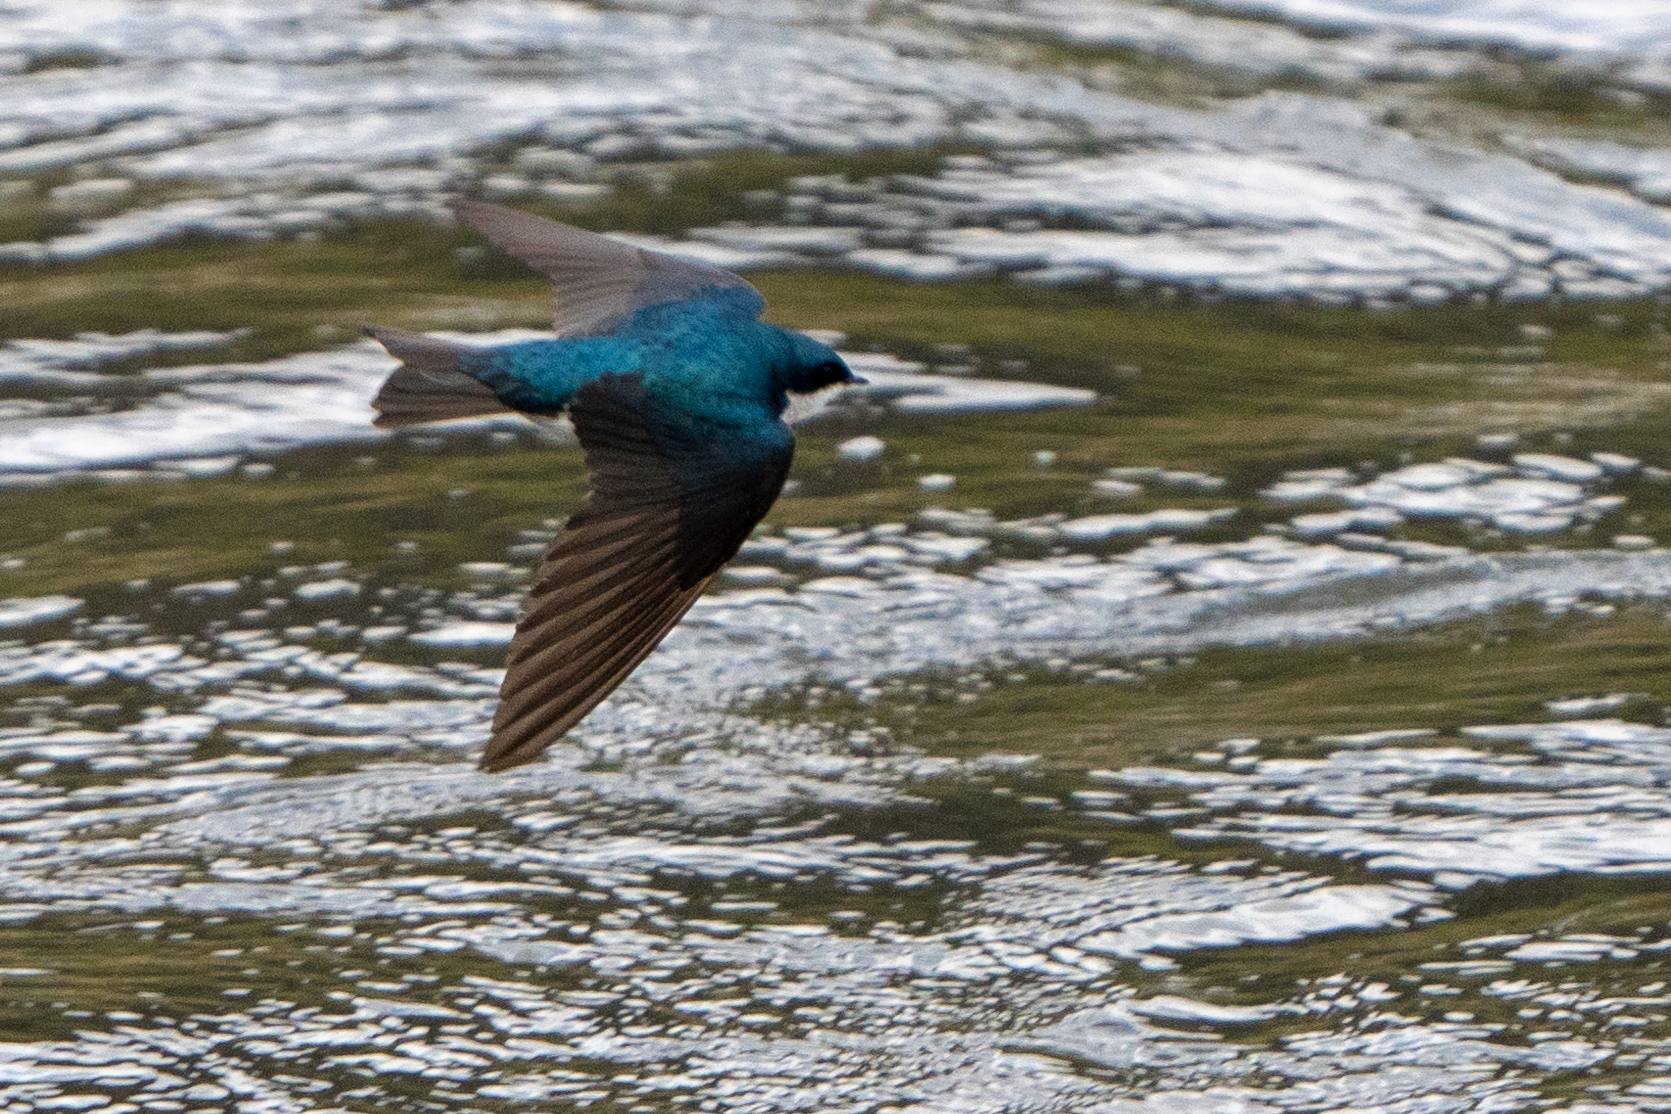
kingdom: Animalia
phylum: Chordata
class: Aves
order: Passeriformes
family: Hirundinidae
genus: Tachycineta
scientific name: Tachycineta bicolor
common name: Tree swallow
